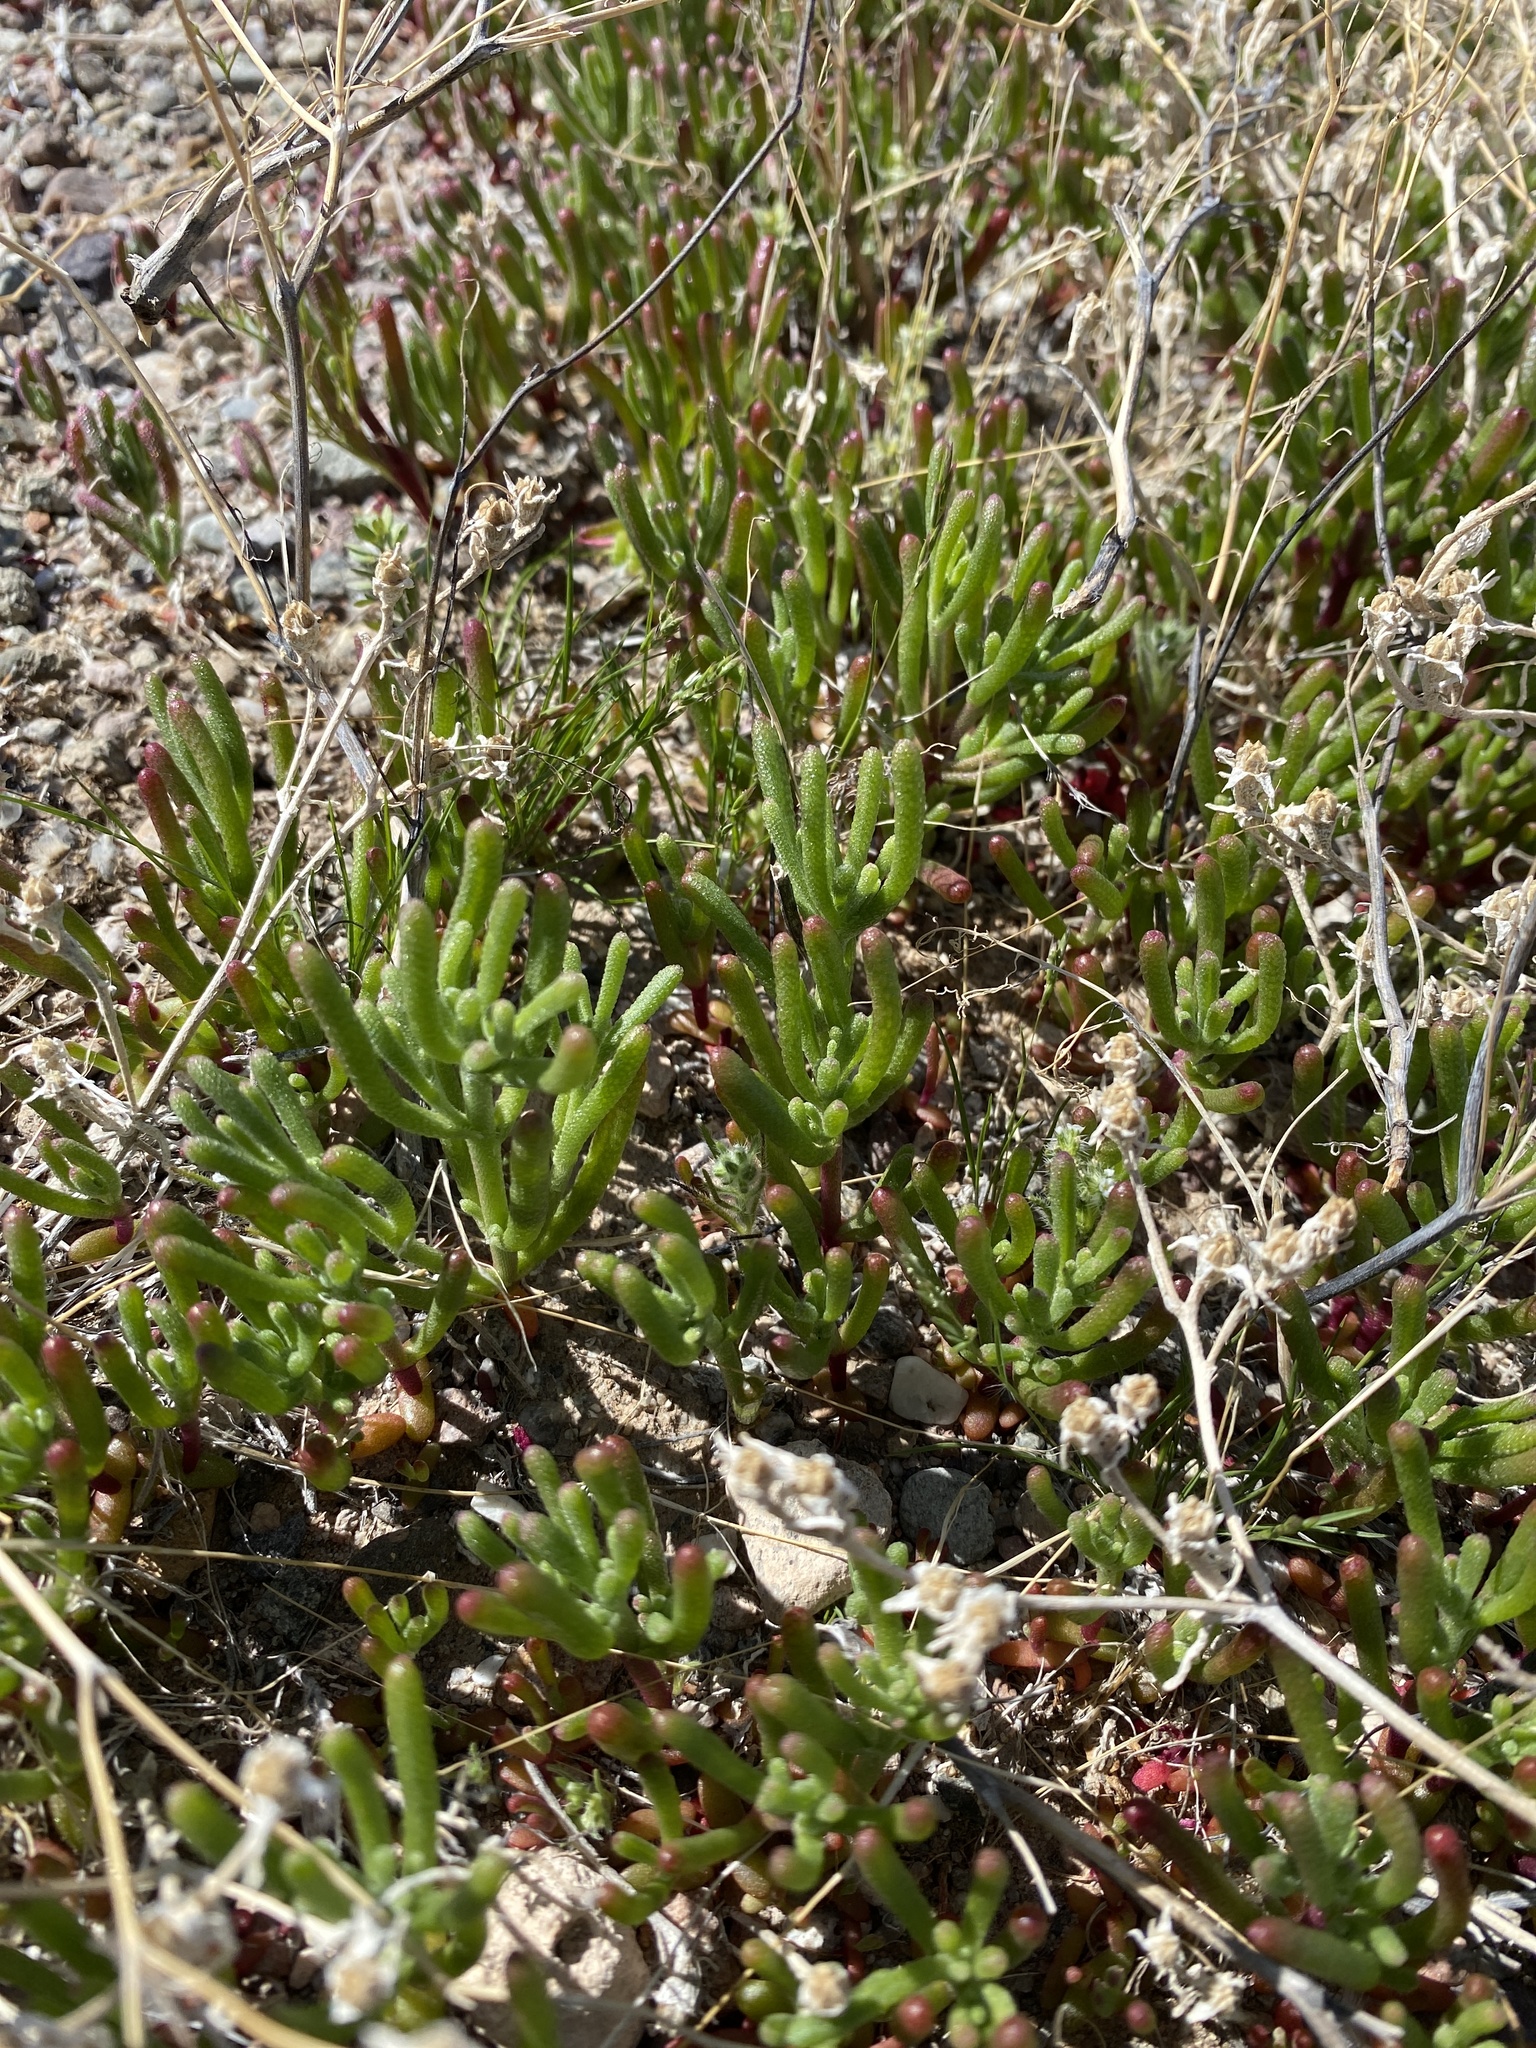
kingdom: Plantae
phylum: Tracheophyta
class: Magnoliopsida
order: Caryophyllales
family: Aizoaceae
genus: Mesembryanthemum
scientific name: Mesembryanthemum nodiflorum
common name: Slenderleaf iceplant
